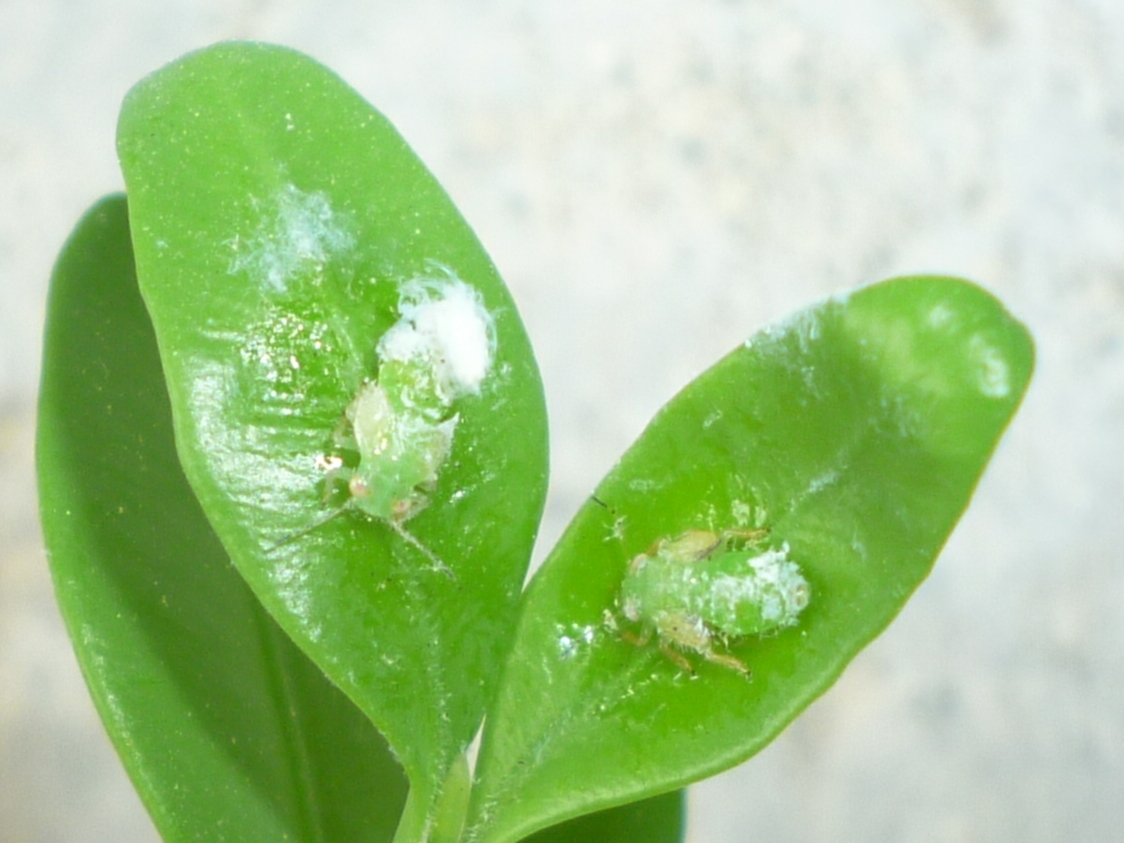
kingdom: Animalia
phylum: Arthropoda
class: Insecta
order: Hemiptera
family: Psyllidae
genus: Psylla
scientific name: Psylla buxi
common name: Boxwood psyllid
